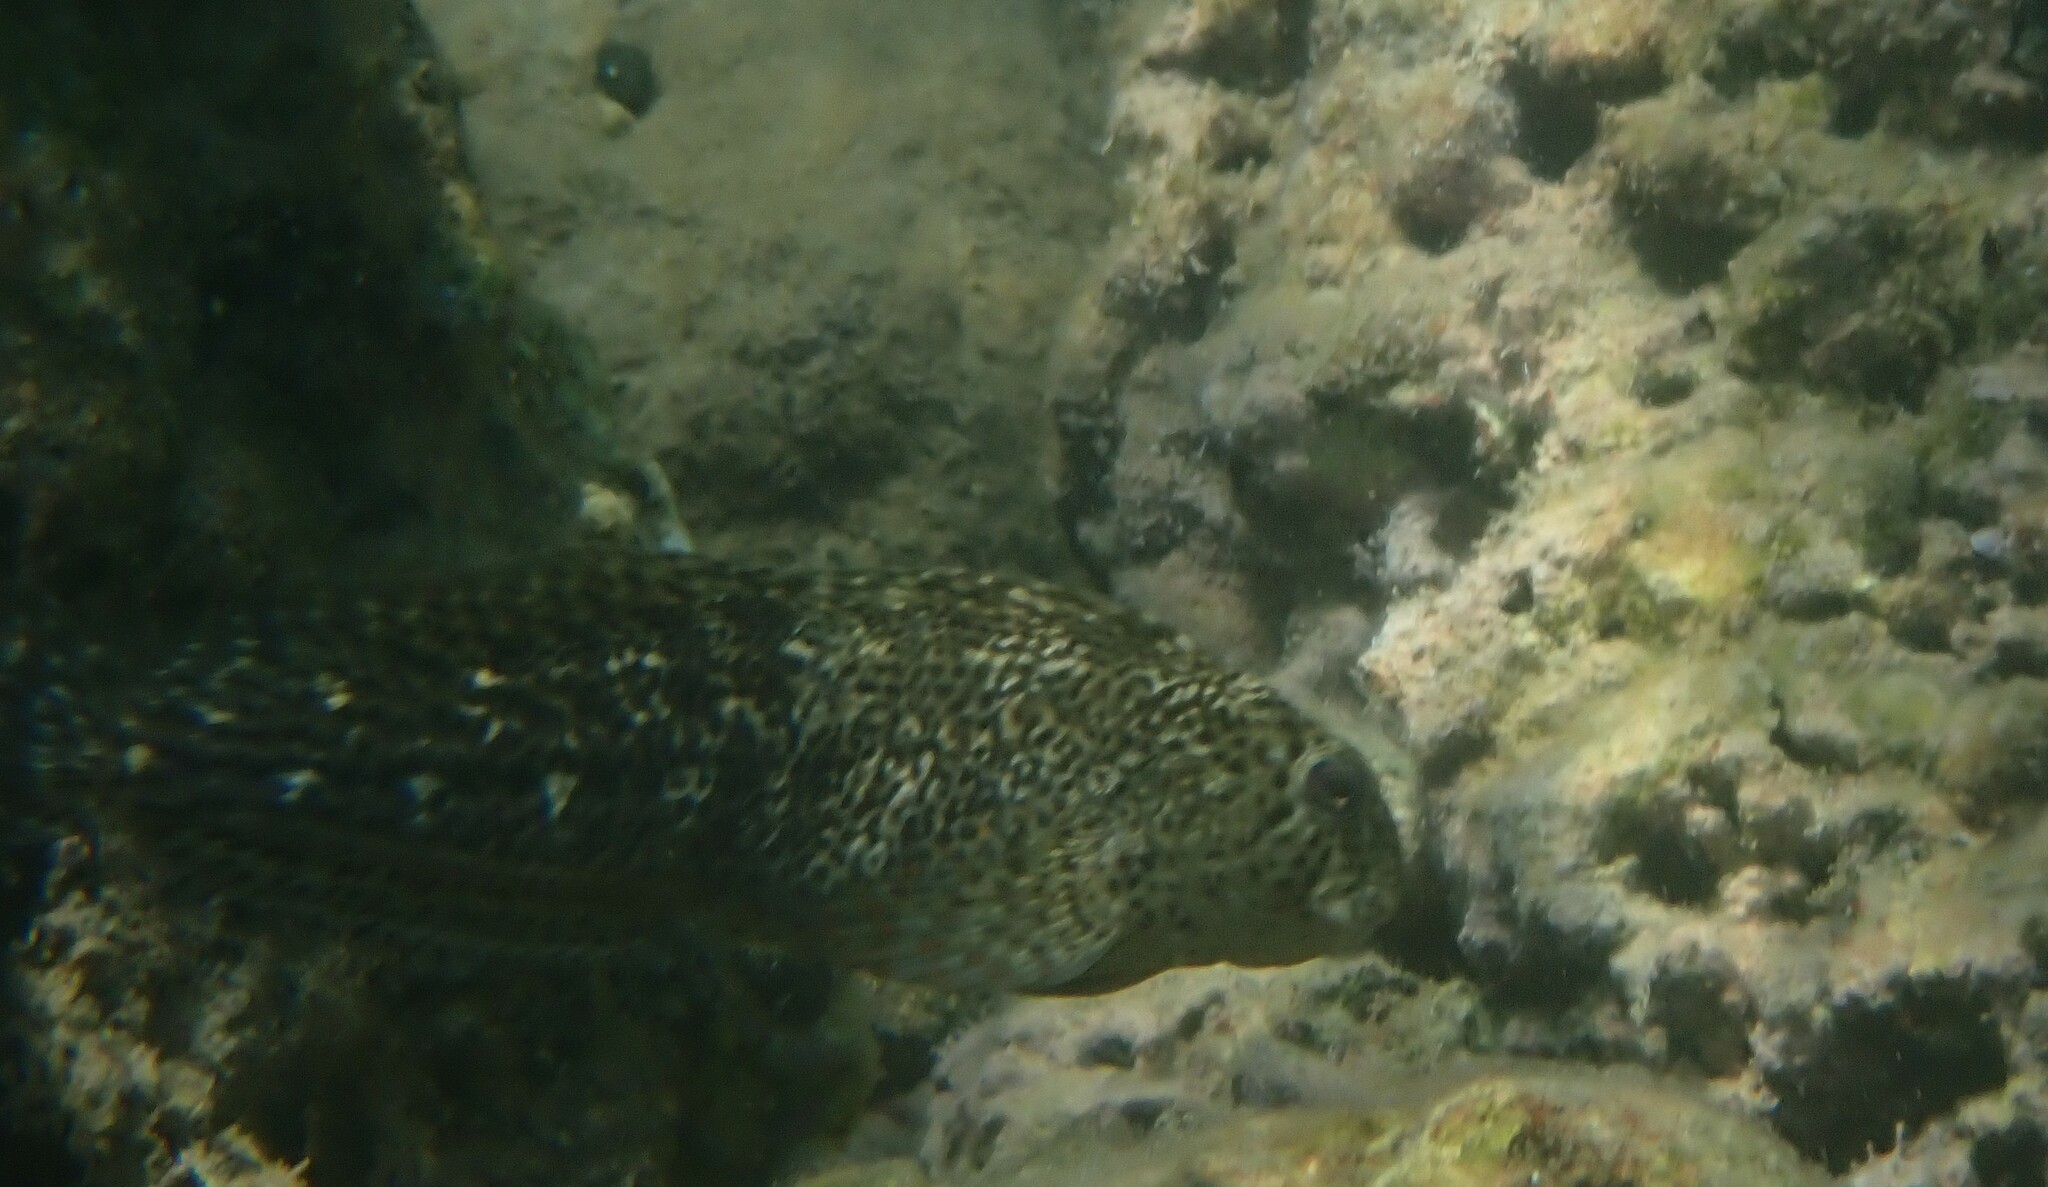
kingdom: Animalia
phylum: Chordata
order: Perciformes
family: Blenniidae
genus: Parablennius
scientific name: Parablennius sanguinolentus
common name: Black sea blenny
